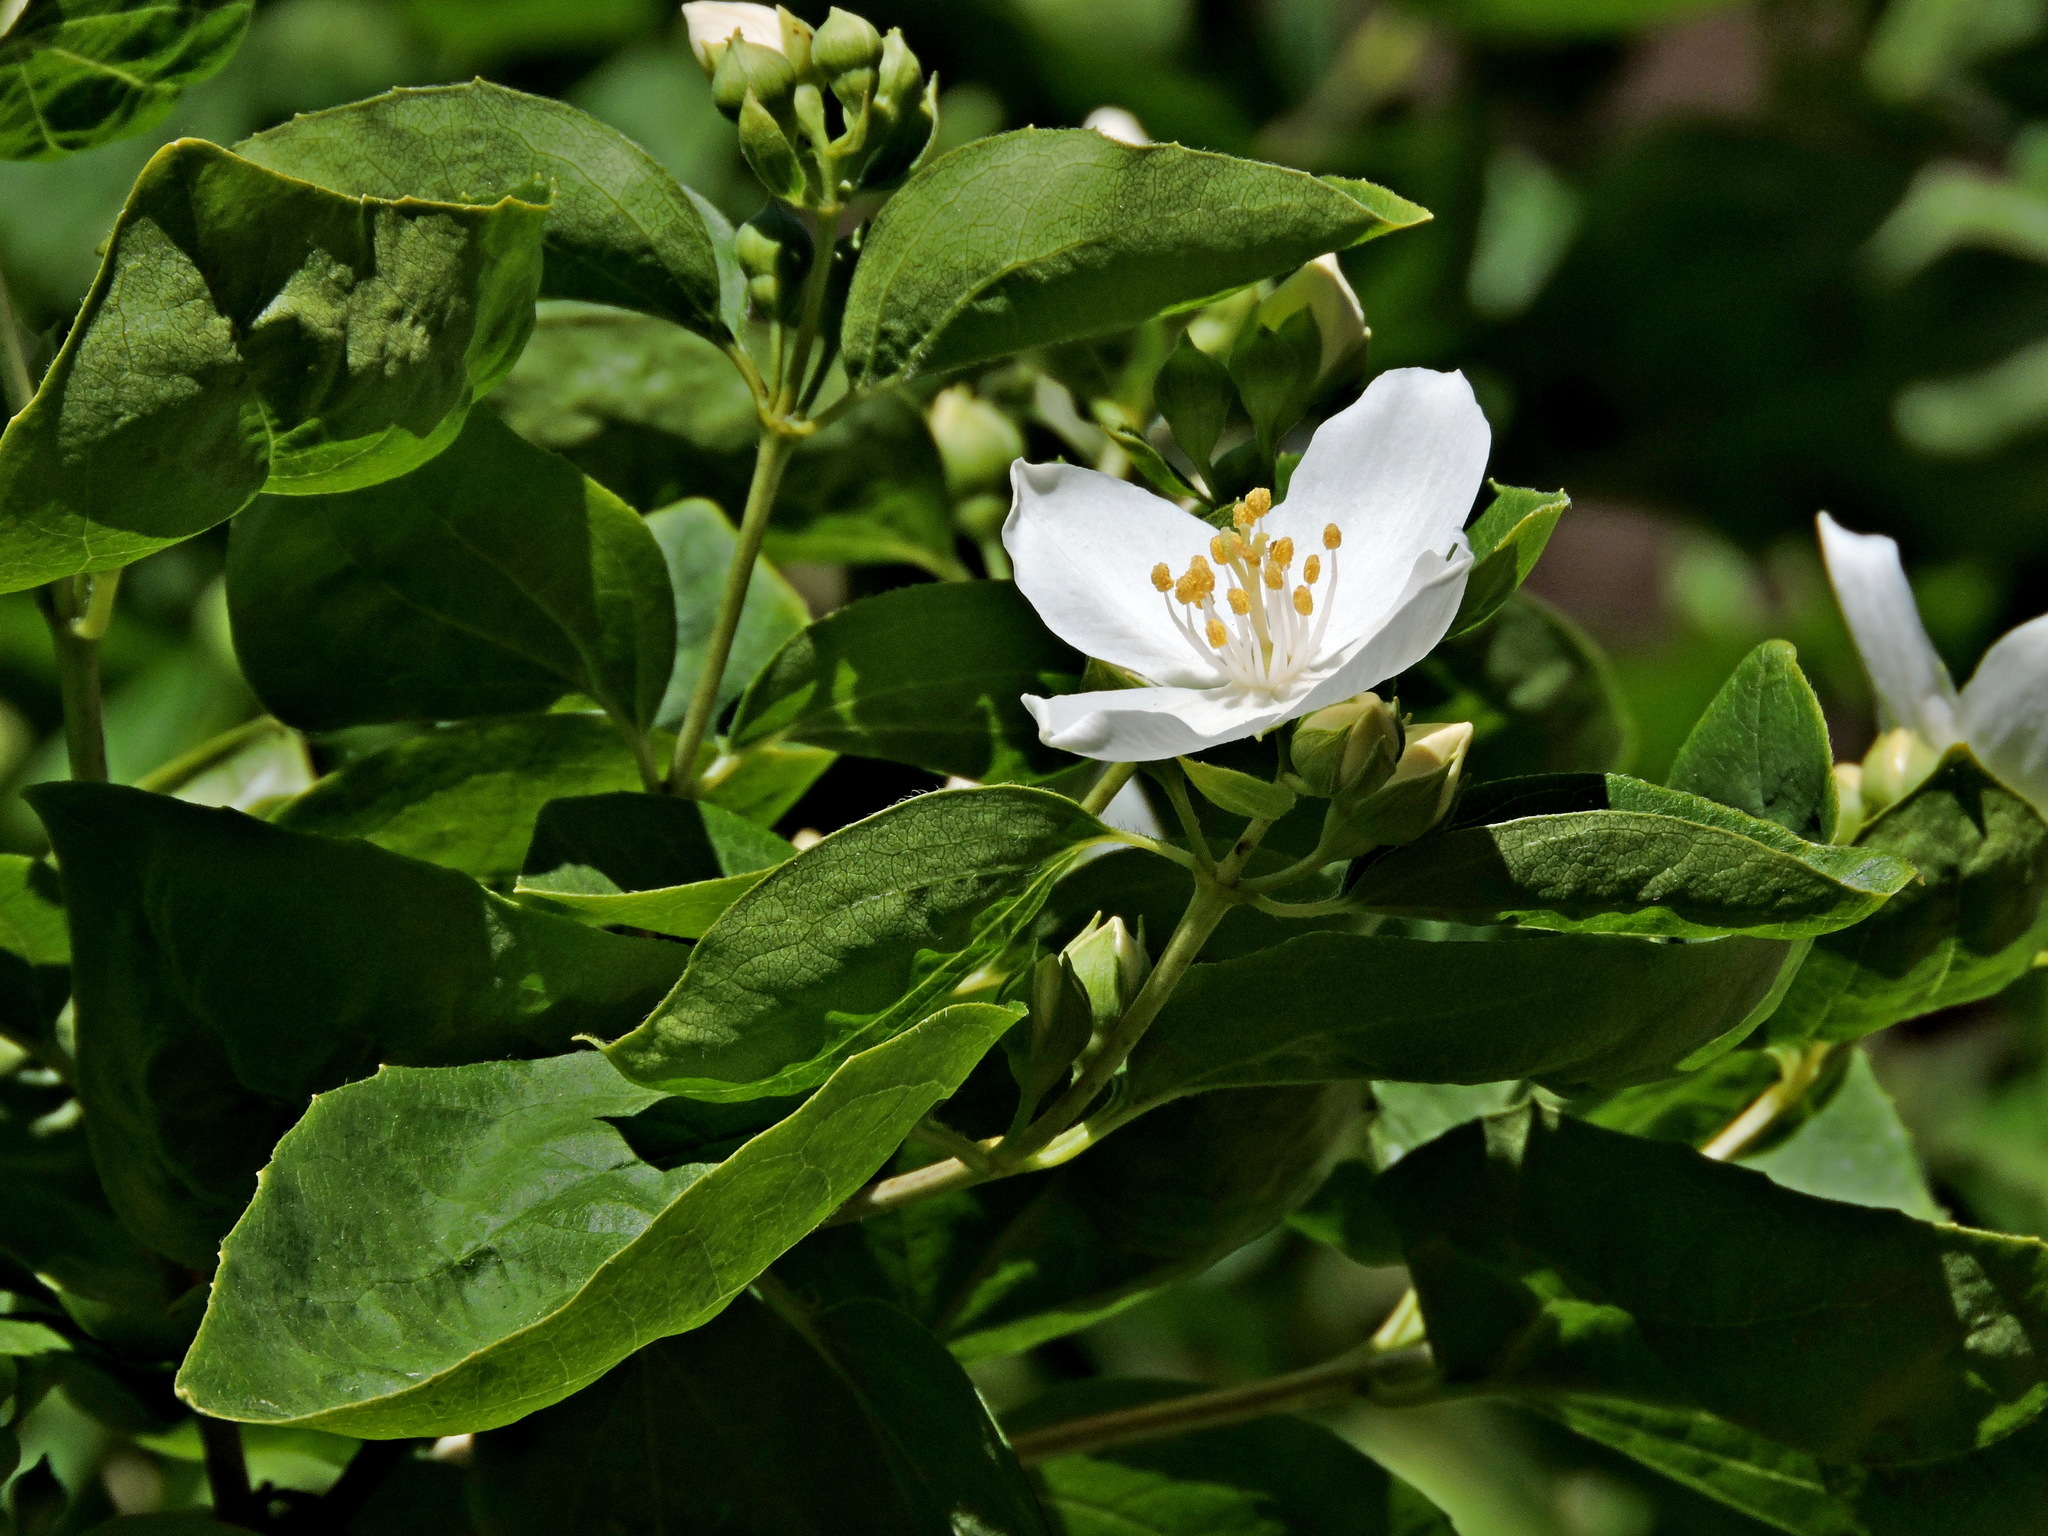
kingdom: Plantae
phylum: Tracheophyta
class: Magnoliopsida
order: Cornales
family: Hydrangeaceae
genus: Philadelphus
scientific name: Philadelphus lewisii
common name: Lewis's mock orange
